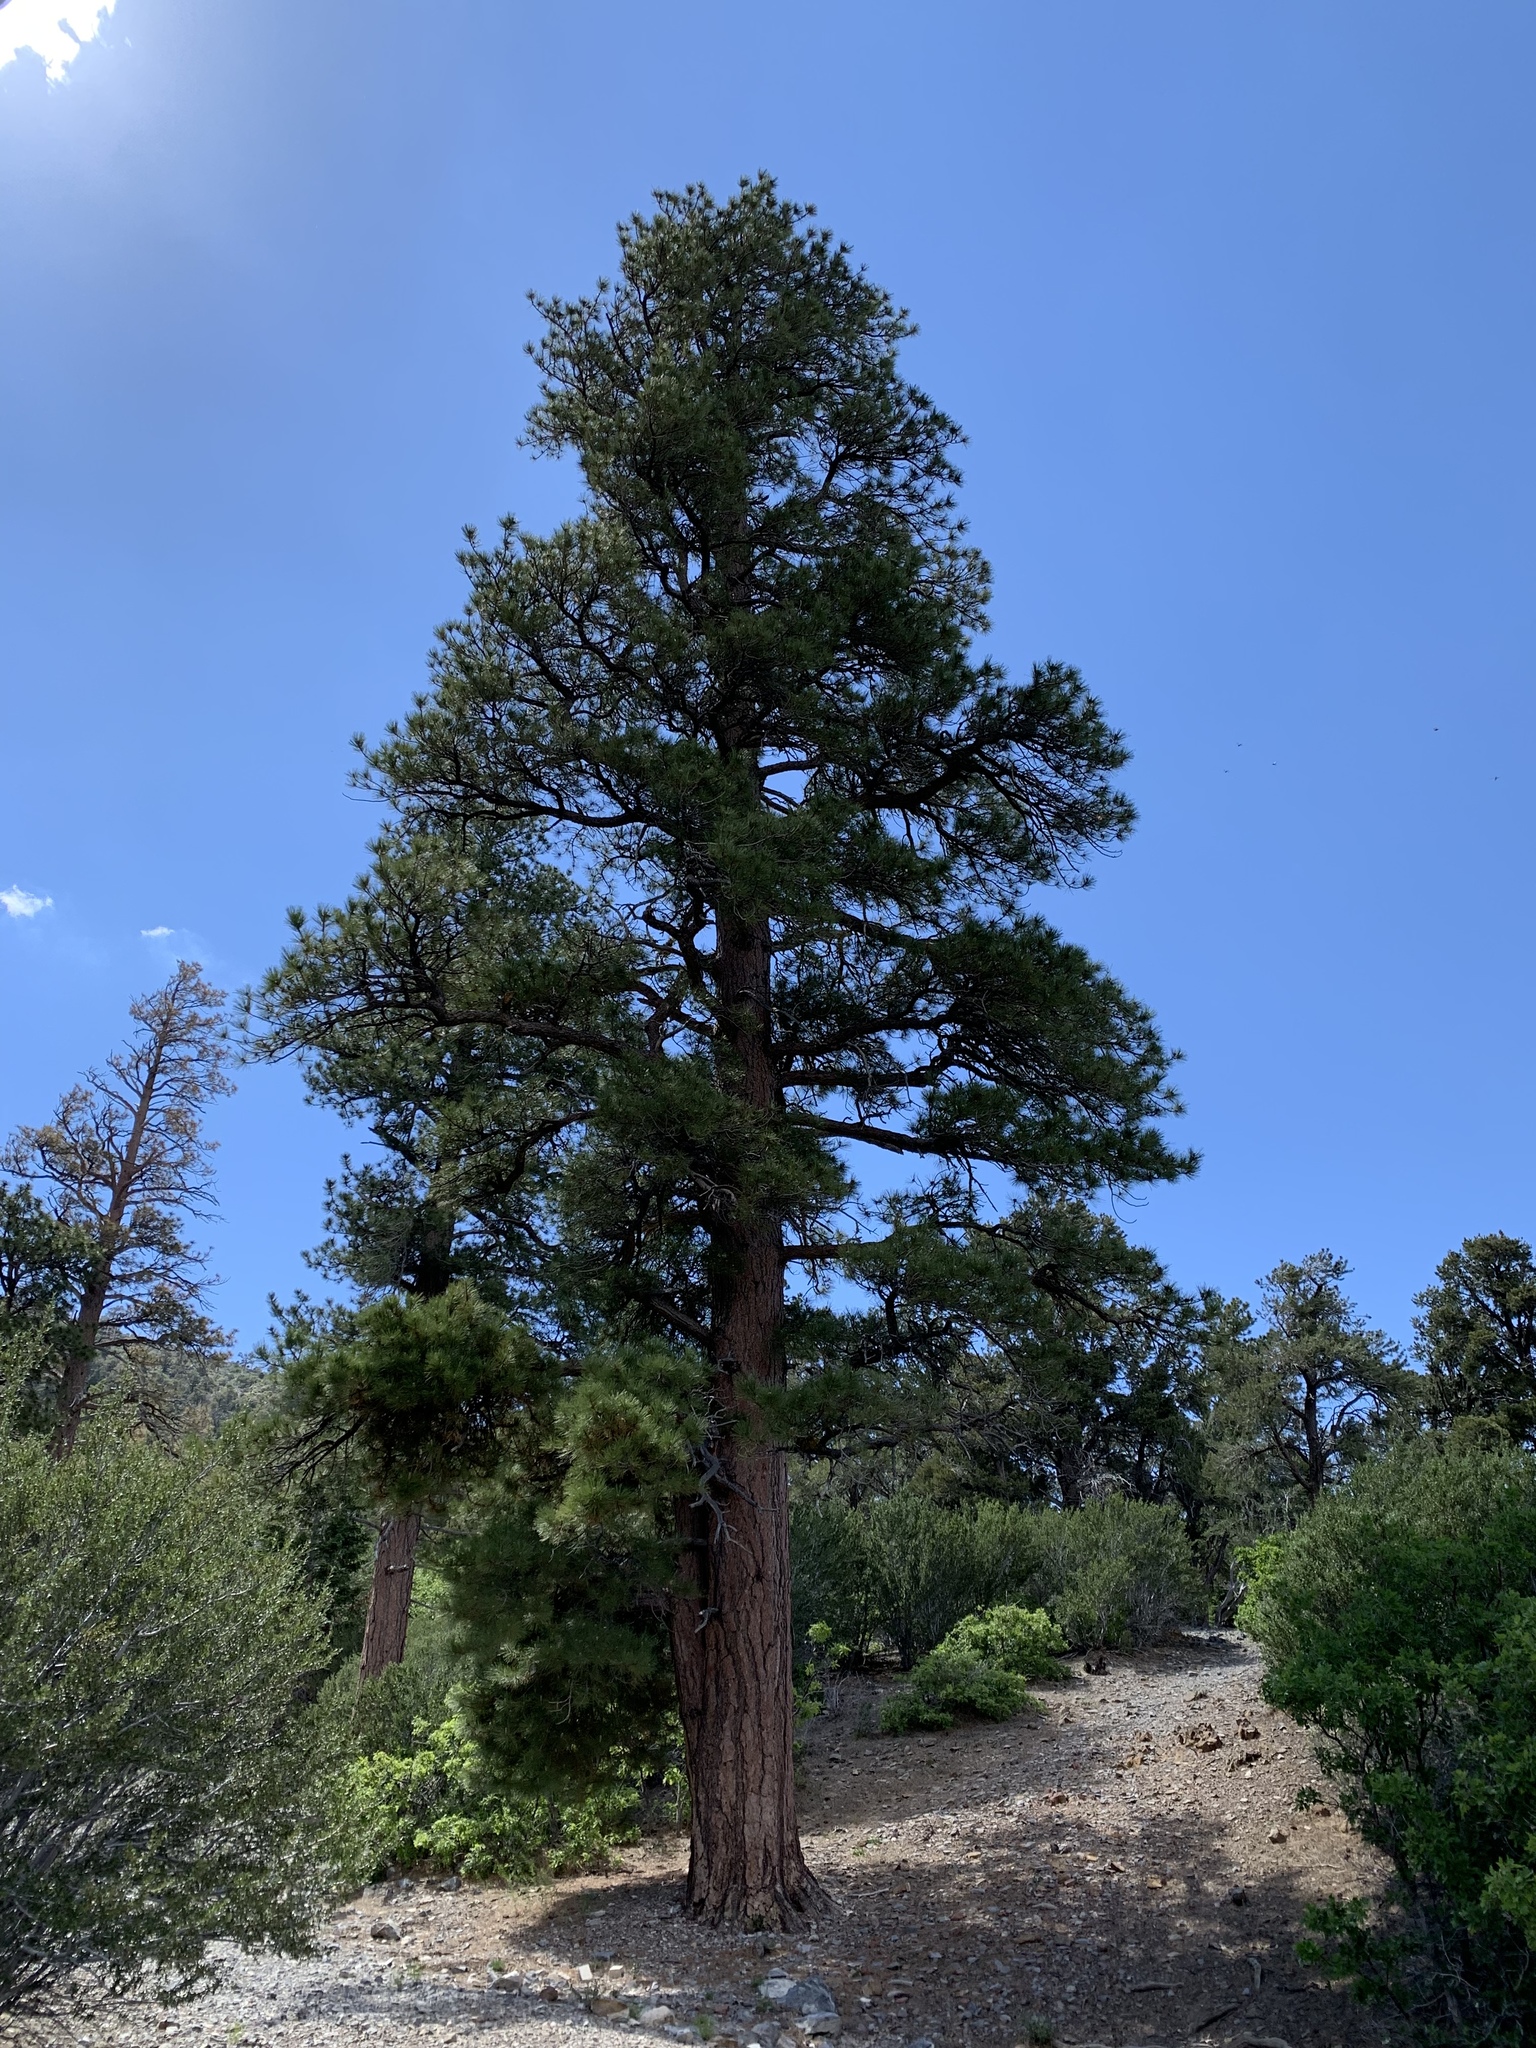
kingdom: Plantae
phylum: Tracheophyta
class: Pinopsida
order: Pinales
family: Pinaceae
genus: Pinus
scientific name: Pinus ponderosa
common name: Western yellow-pine
